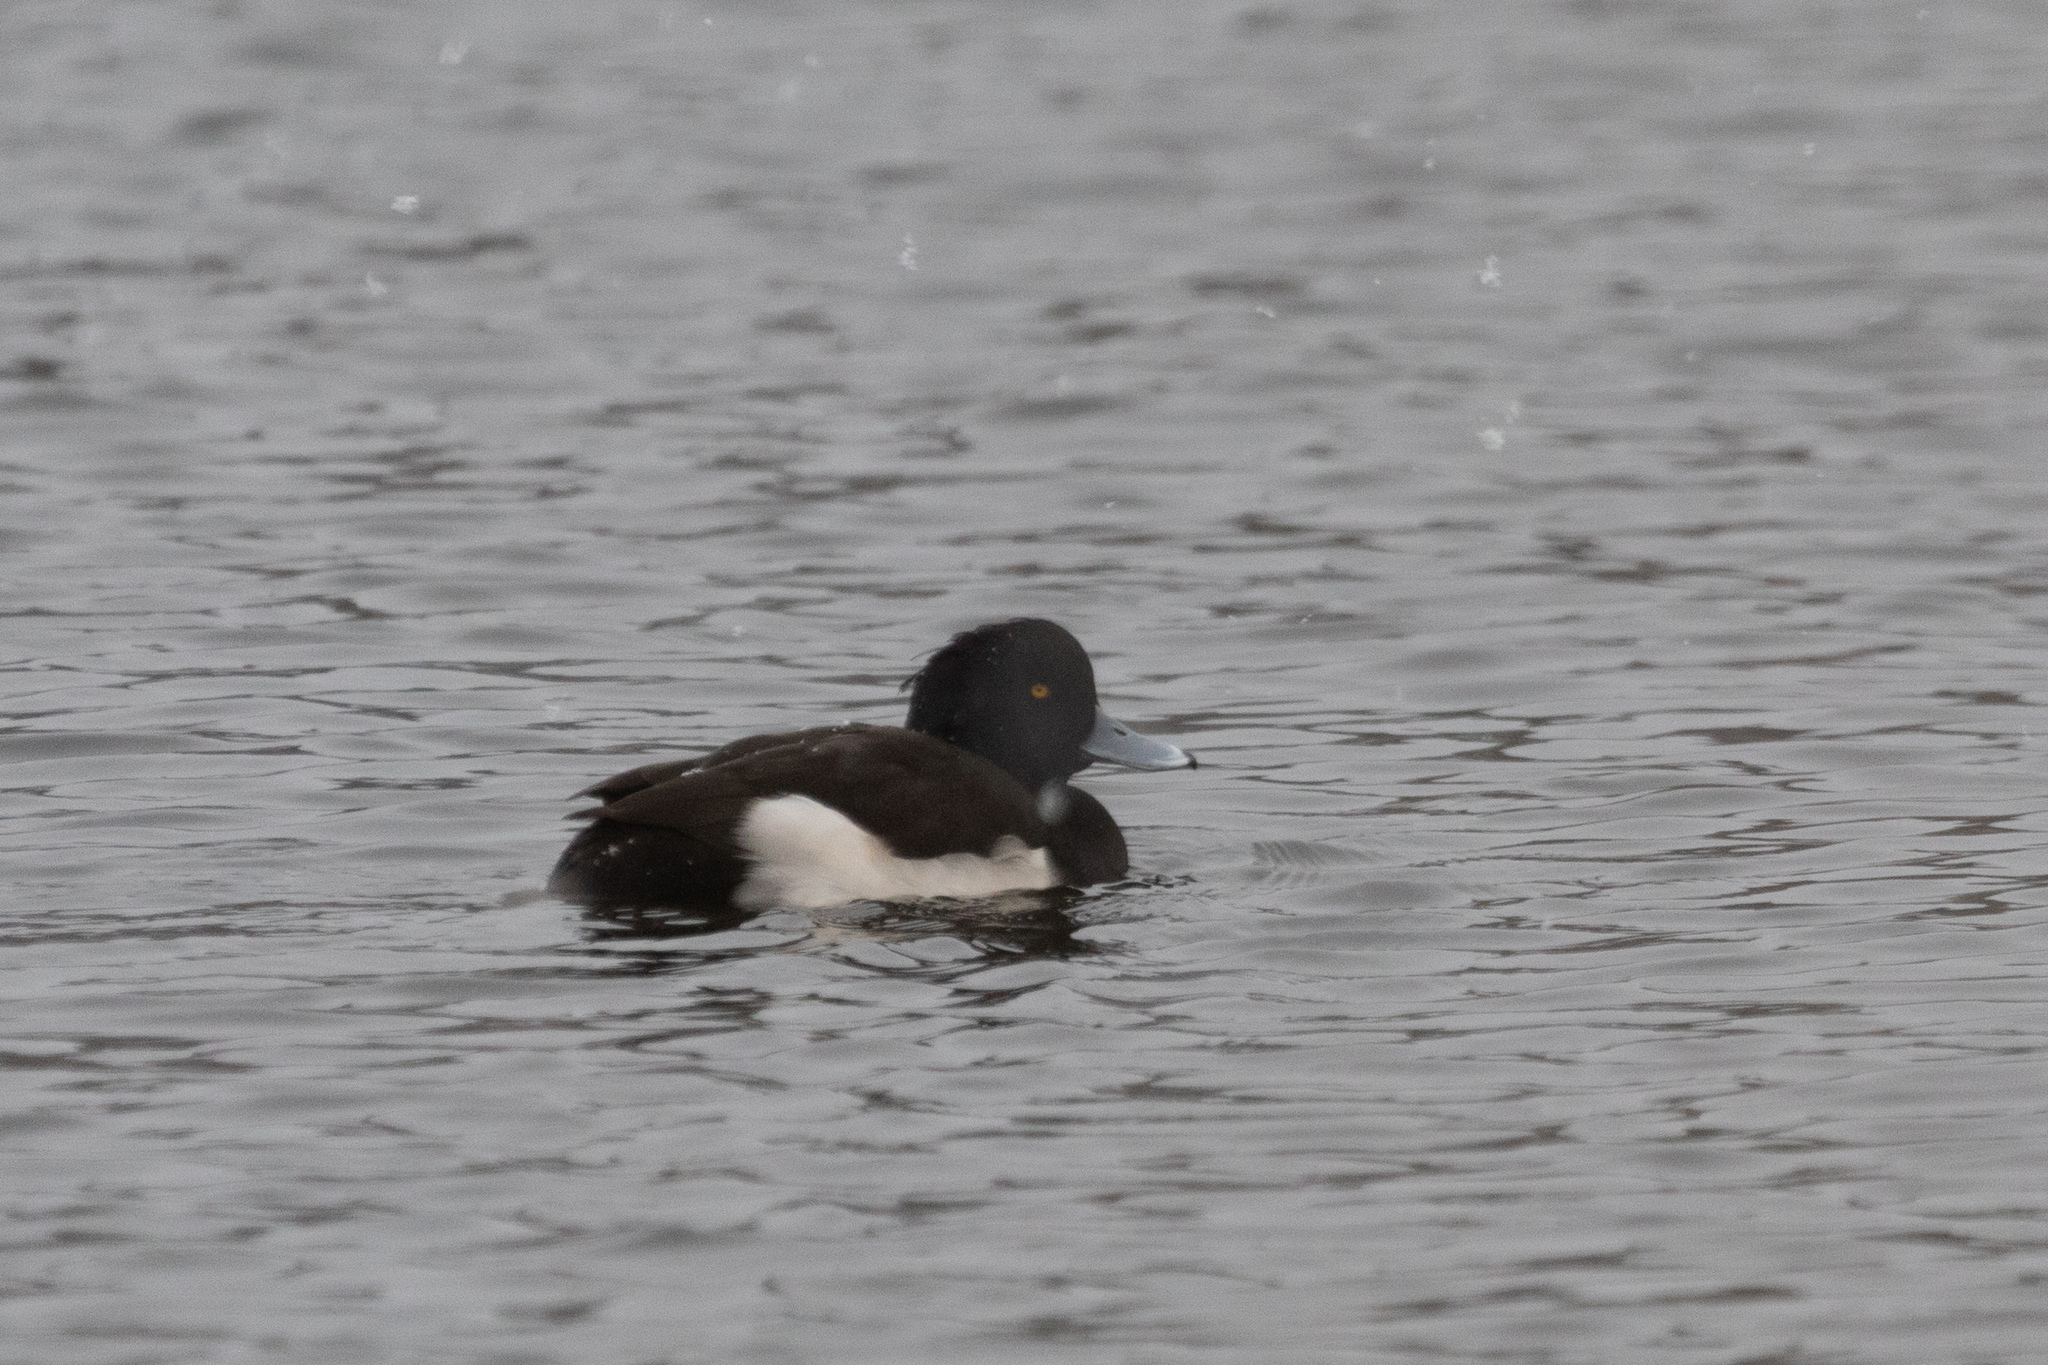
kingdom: Animalia
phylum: Chordata
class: Aves
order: Anseriformes
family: Anatidae
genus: Aythya
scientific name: Aythya fuligula
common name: Tufted duck
